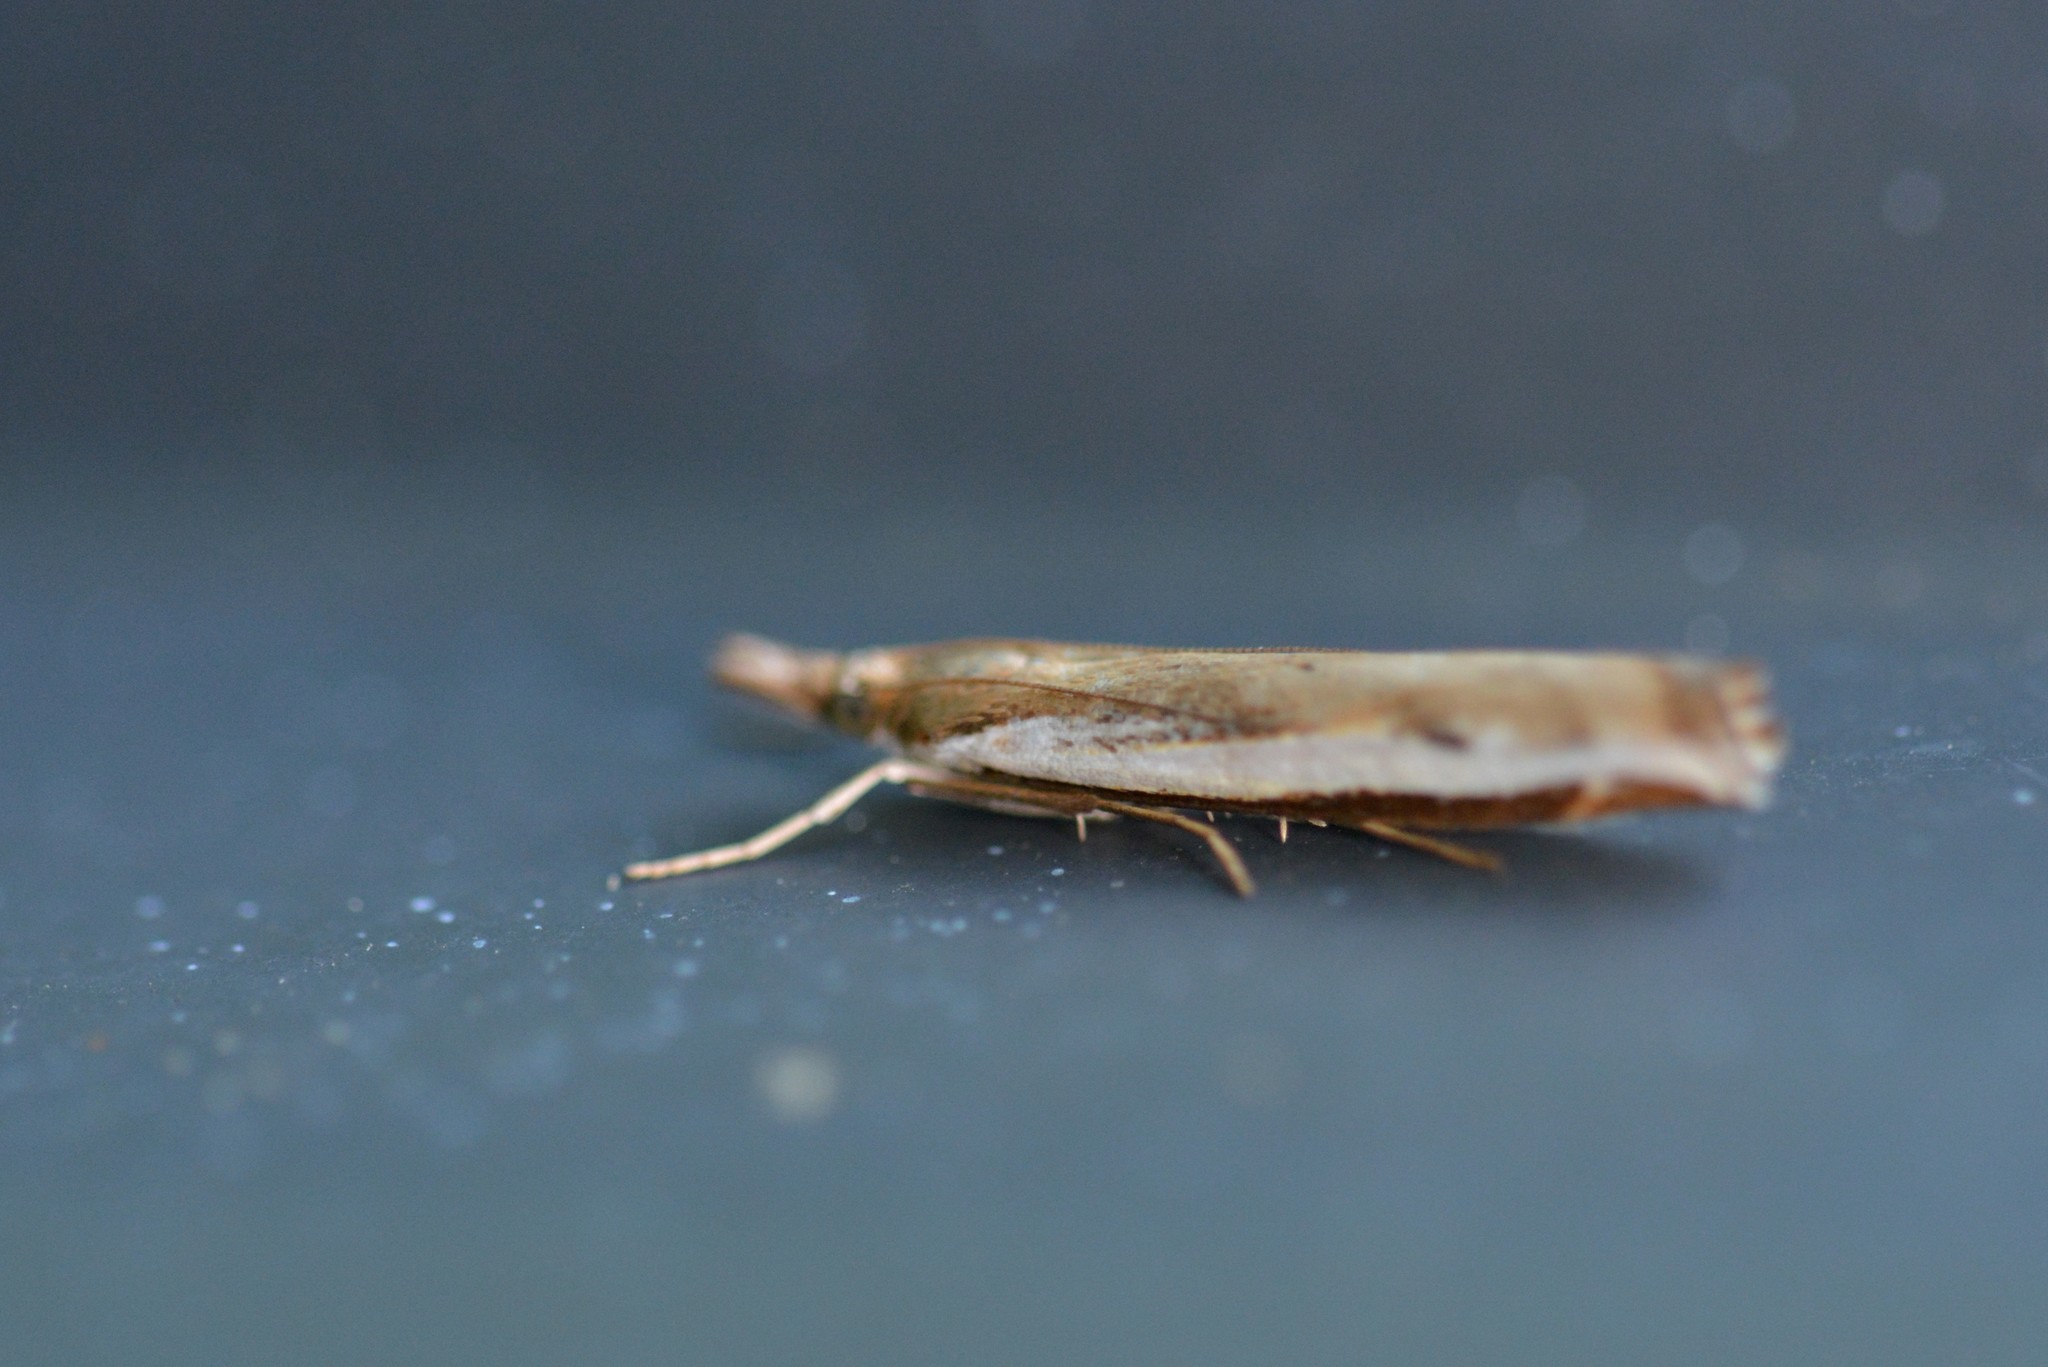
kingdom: Animalia
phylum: Arthropoda
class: Insecta
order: Lepidoptera
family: Crambidae
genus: Orocrambus
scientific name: Orocrambus flexuosellus
